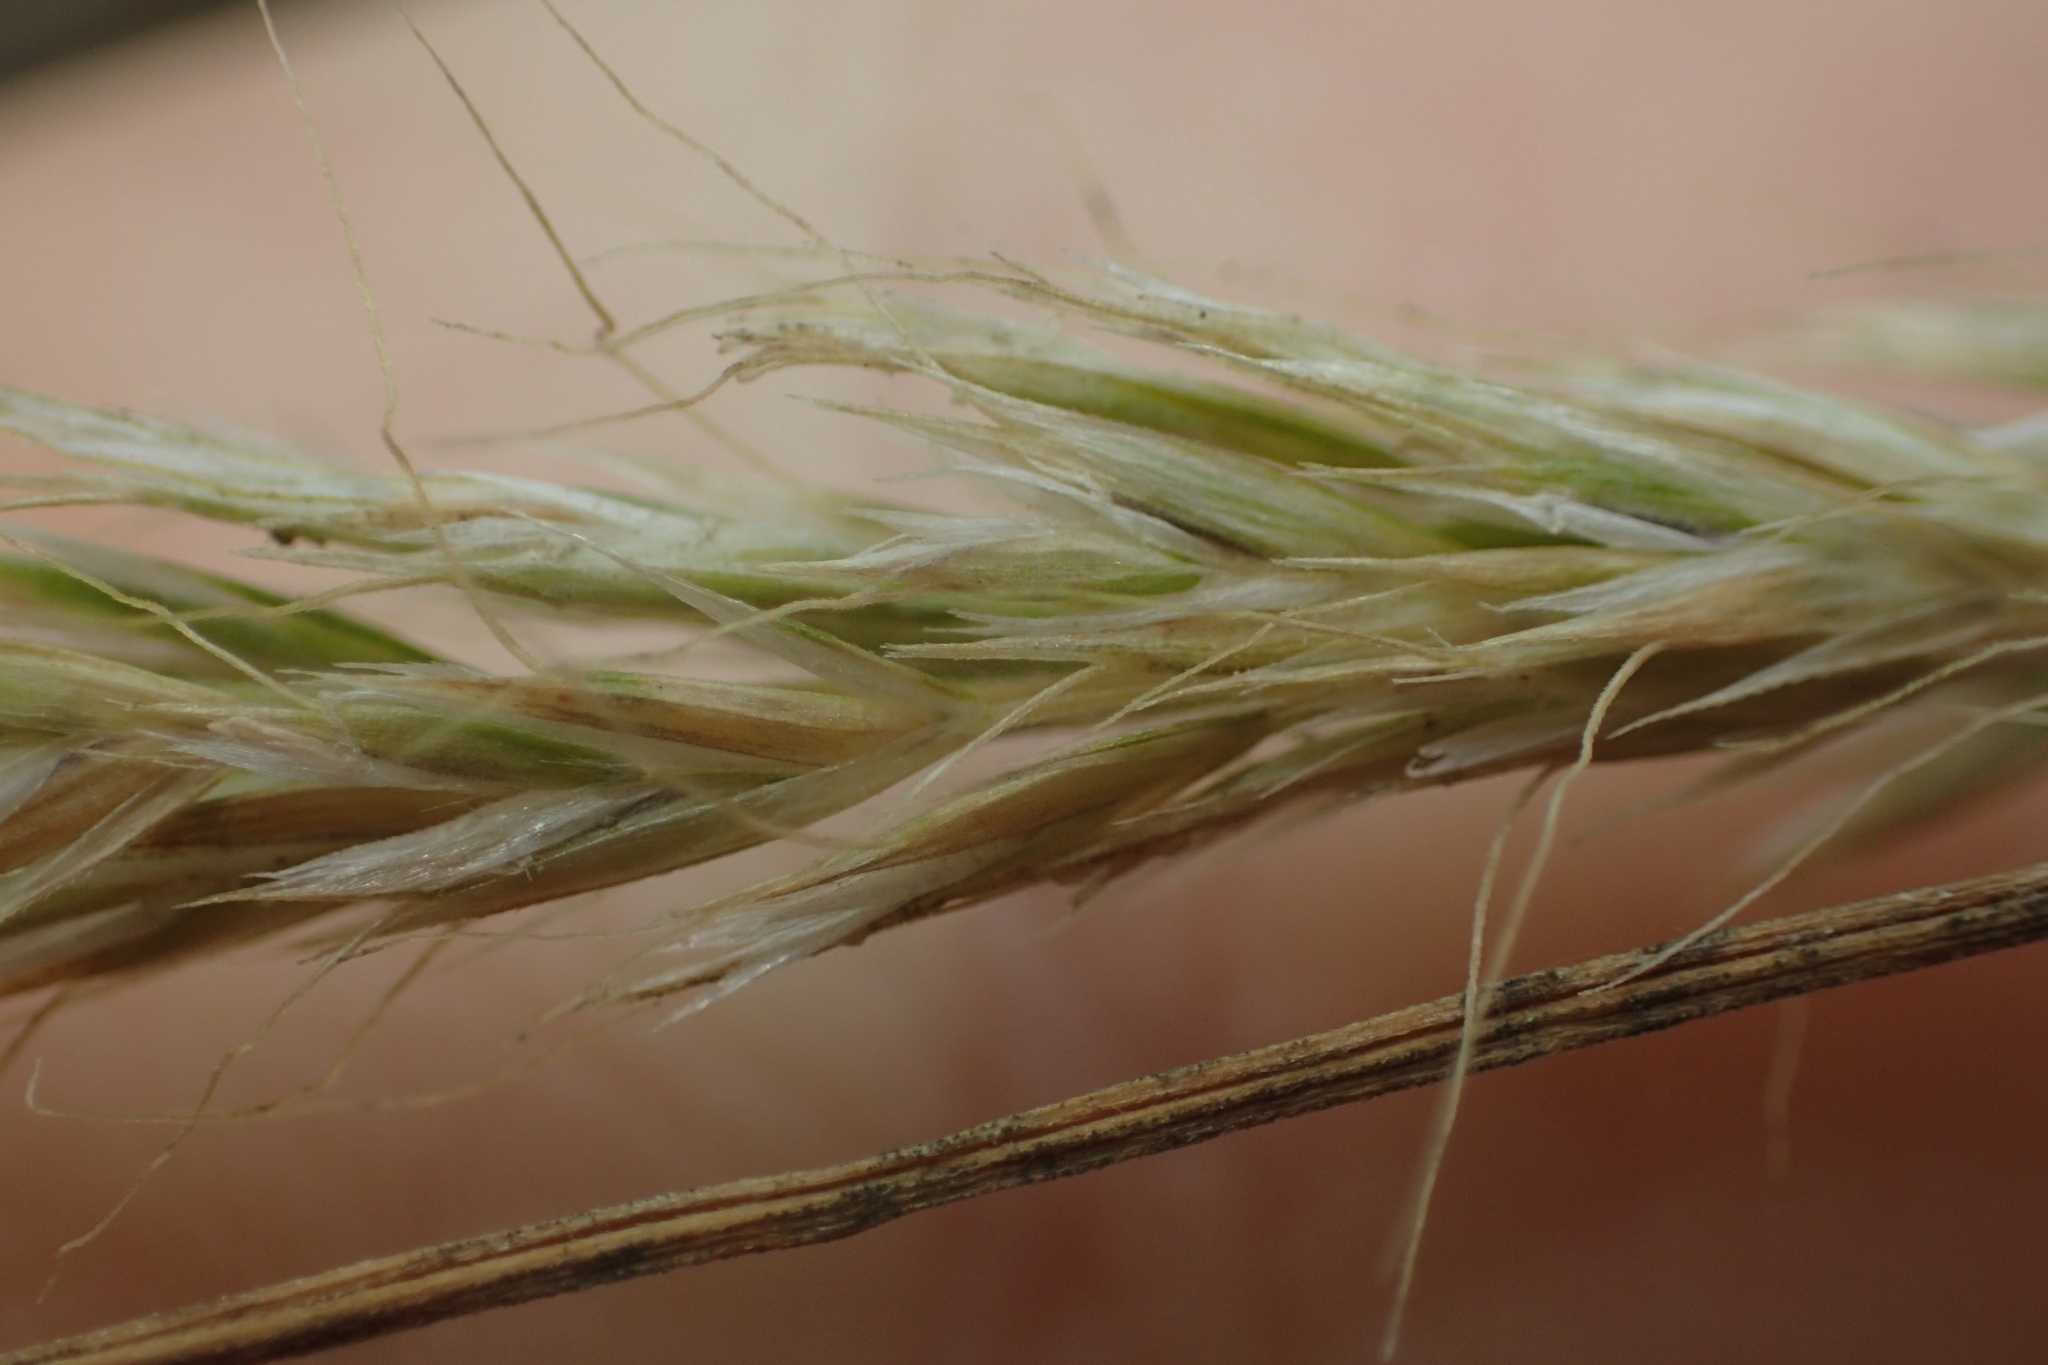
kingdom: Plantae
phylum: Tracheophyta
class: Liliopsida
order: Poales
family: Poaceae
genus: Koeleria
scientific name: Koeleria arduana
